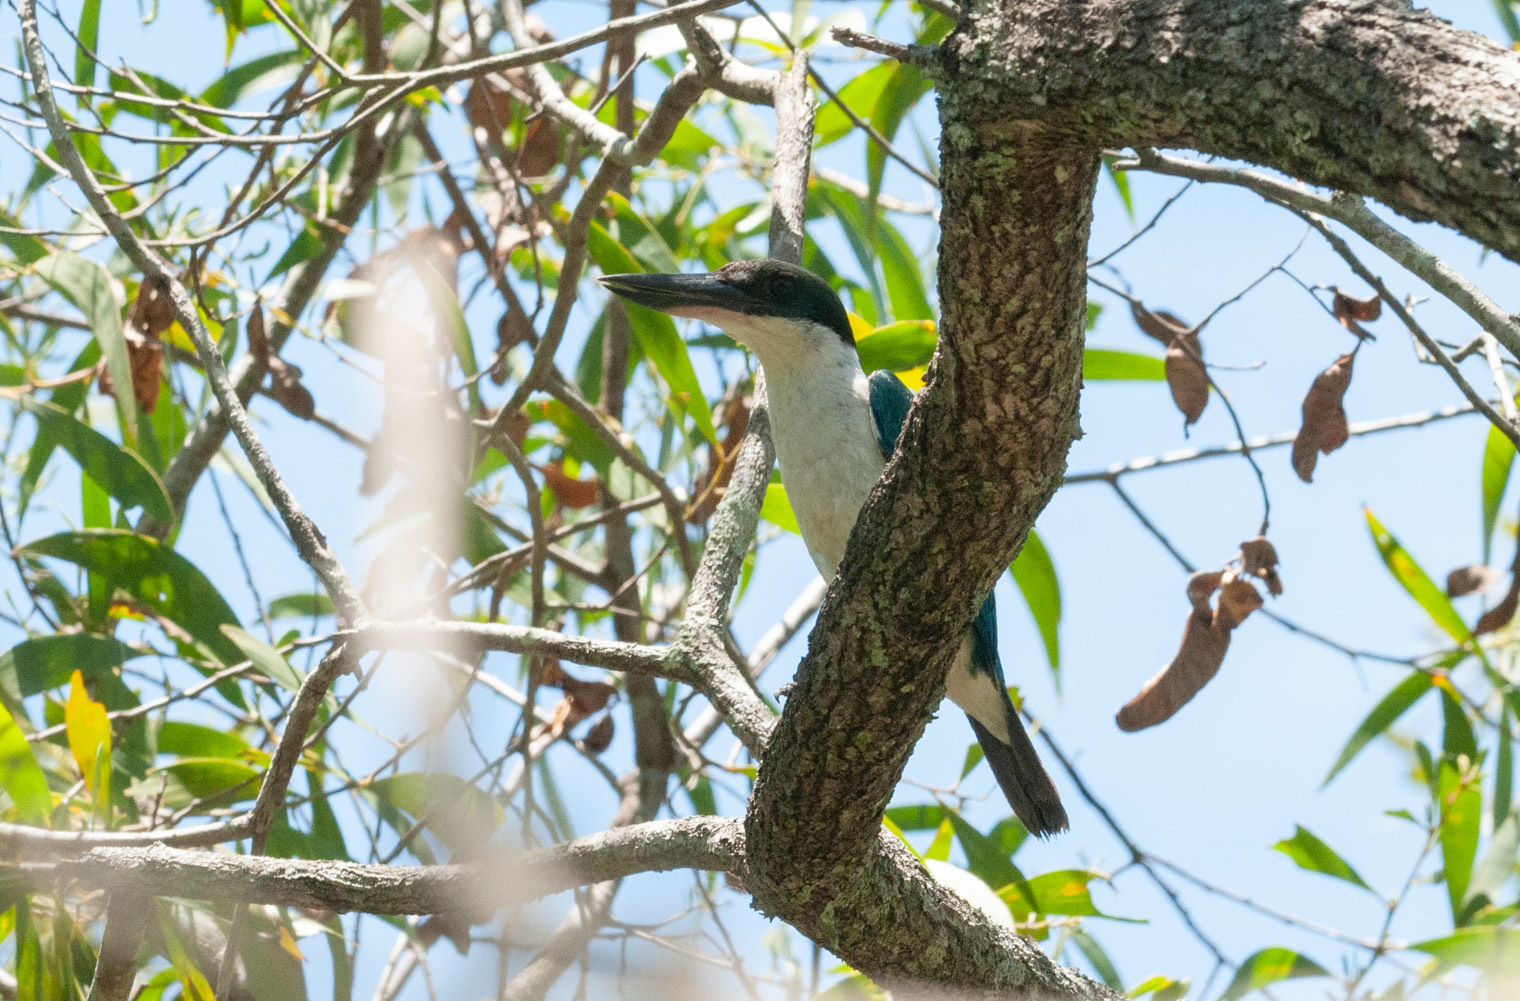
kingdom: Animalia
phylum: Chordata
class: Aves
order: Coraciiformes
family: Alcedinidae
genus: Todiramphus
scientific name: Todiramphus sordidus
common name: Torresian kingfisher
